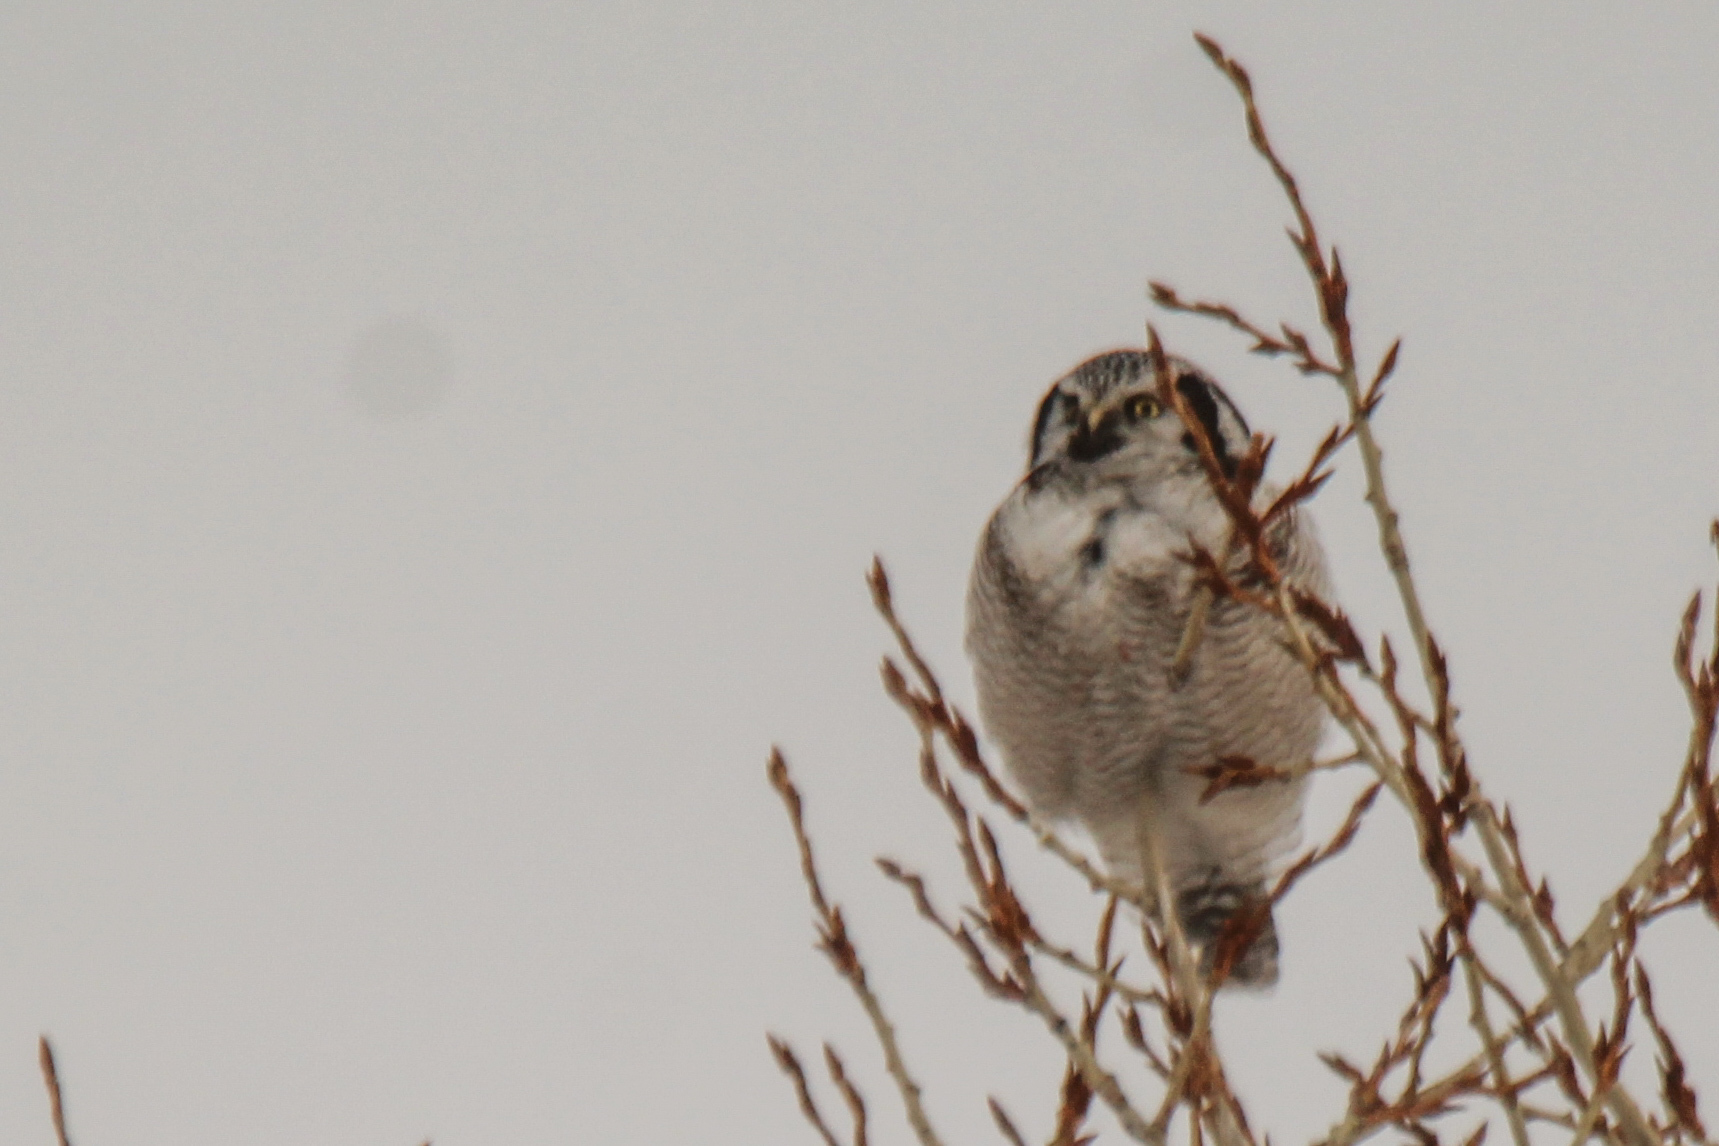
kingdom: Animalia
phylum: Chordata
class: Aves
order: Strigiformes
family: Strigidae
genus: Surnia
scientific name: Surnia ulula
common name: Northern hawk-owl
